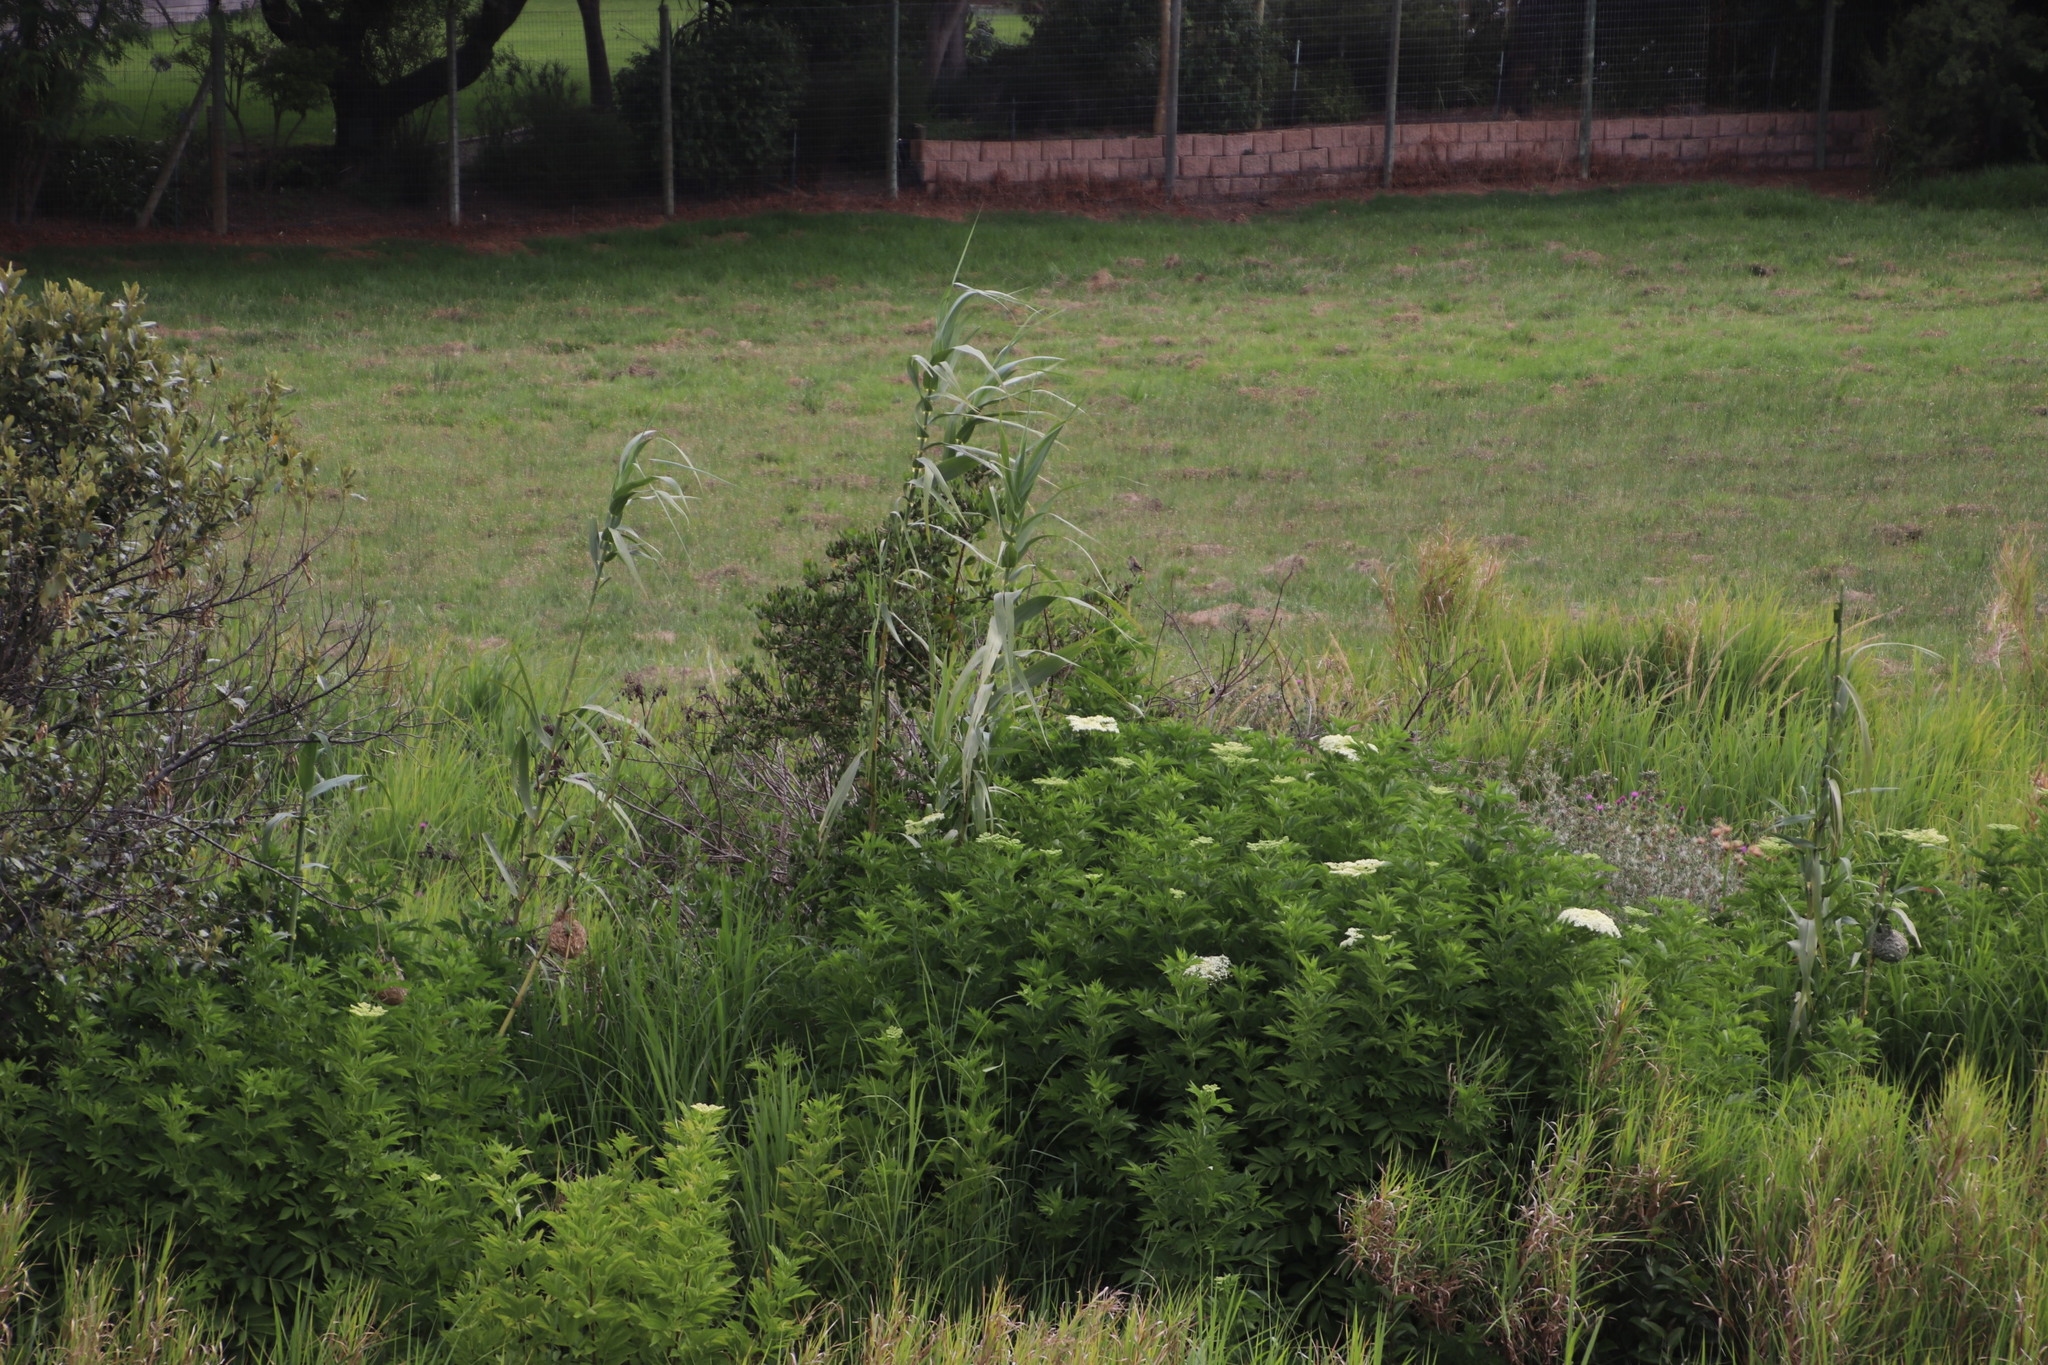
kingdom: Plantae
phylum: Tracheophyta
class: Magnoliopsida
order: Dipsacales
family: Viburnaceae
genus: Sambucus
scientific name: Sambucus nigra
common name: Elder
